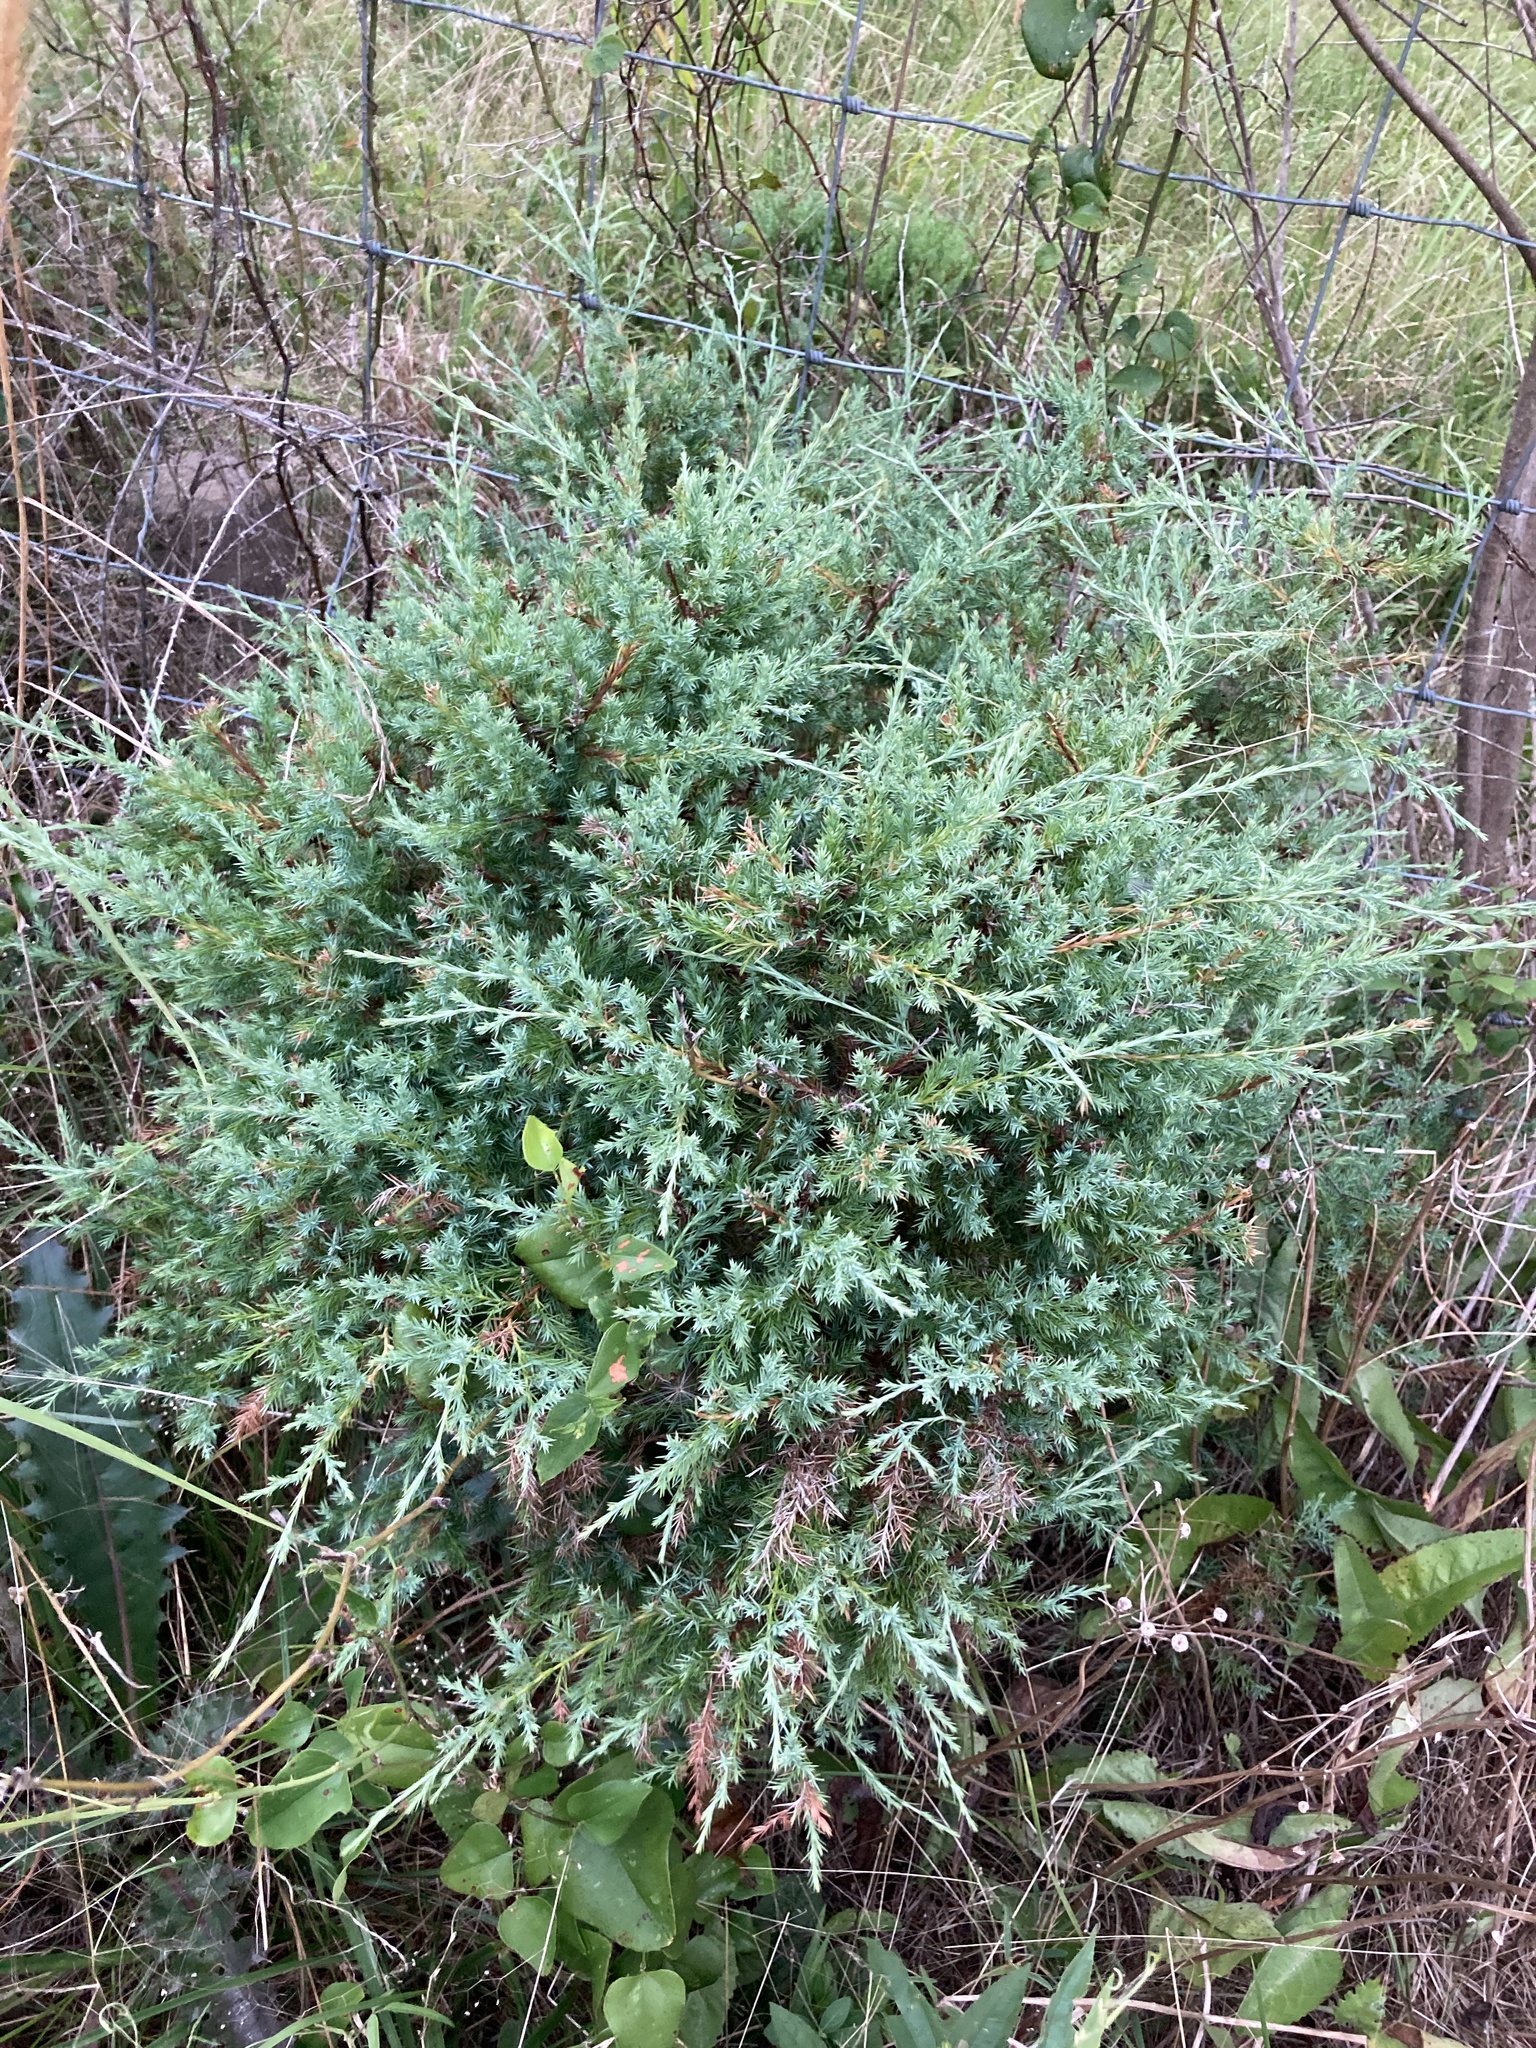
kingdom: Plantae
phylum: Tracheophyta
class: Pinopsida
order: Pinales
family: Cupressaceae
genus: Juniperus
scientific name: Juniperus virginiana
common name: Red juniper
